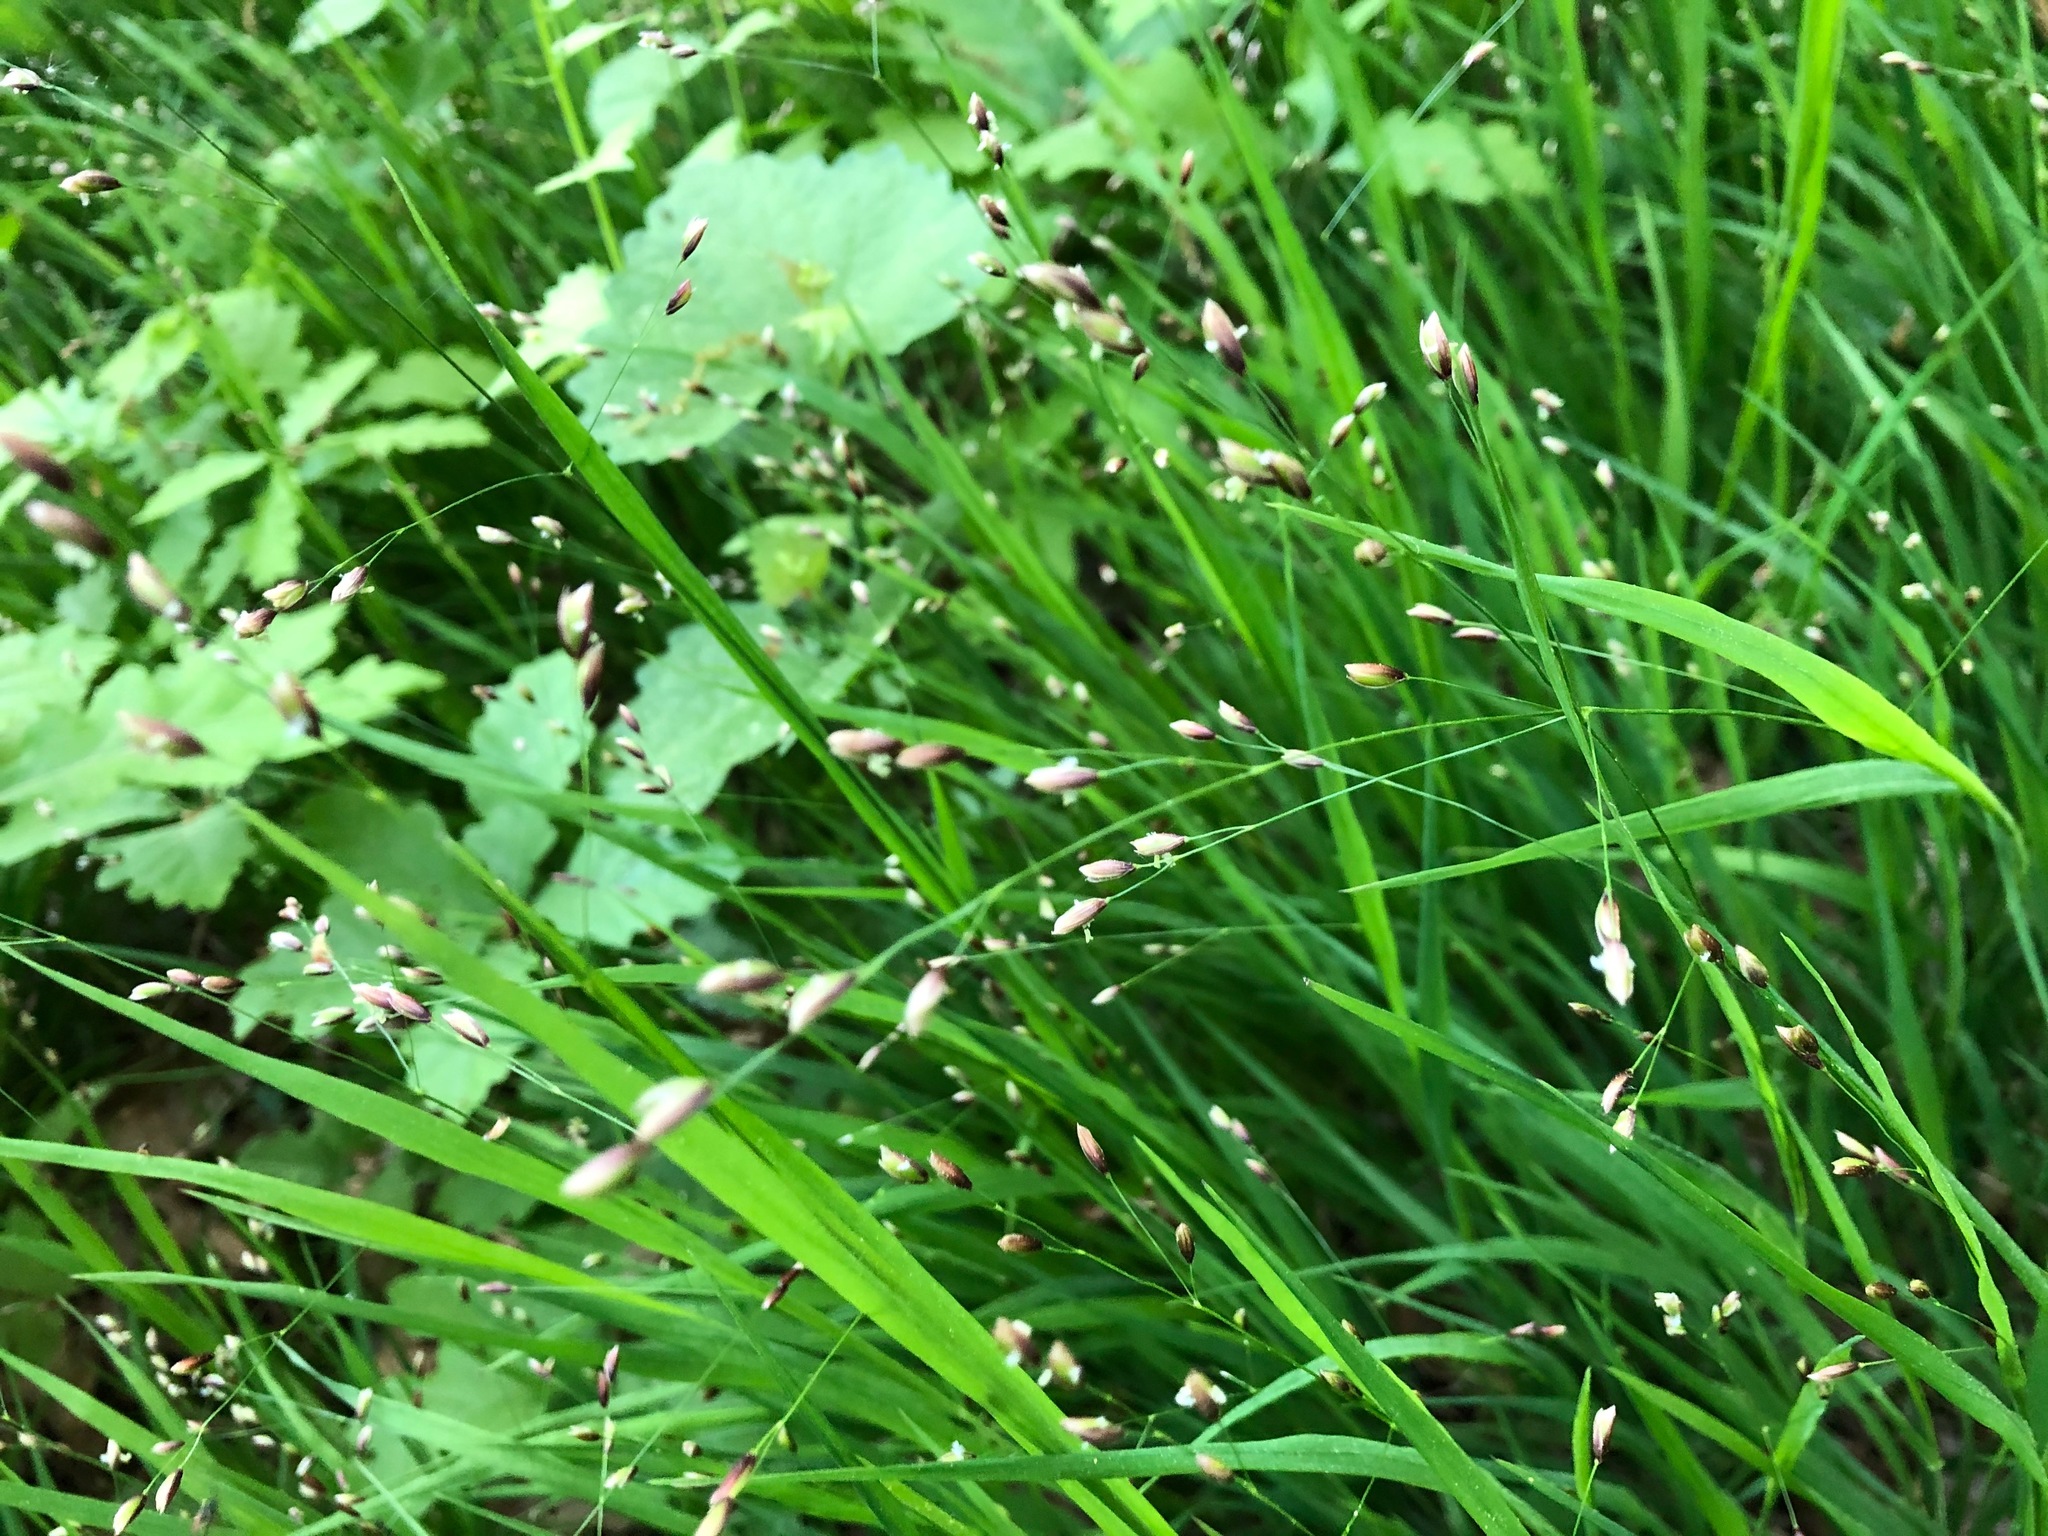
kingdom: Plantae
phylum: Tracheophyta
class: Liliopsida
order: Poales
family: Poaceae
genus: Melica
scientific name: Melica uniflora
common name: Wood melick
